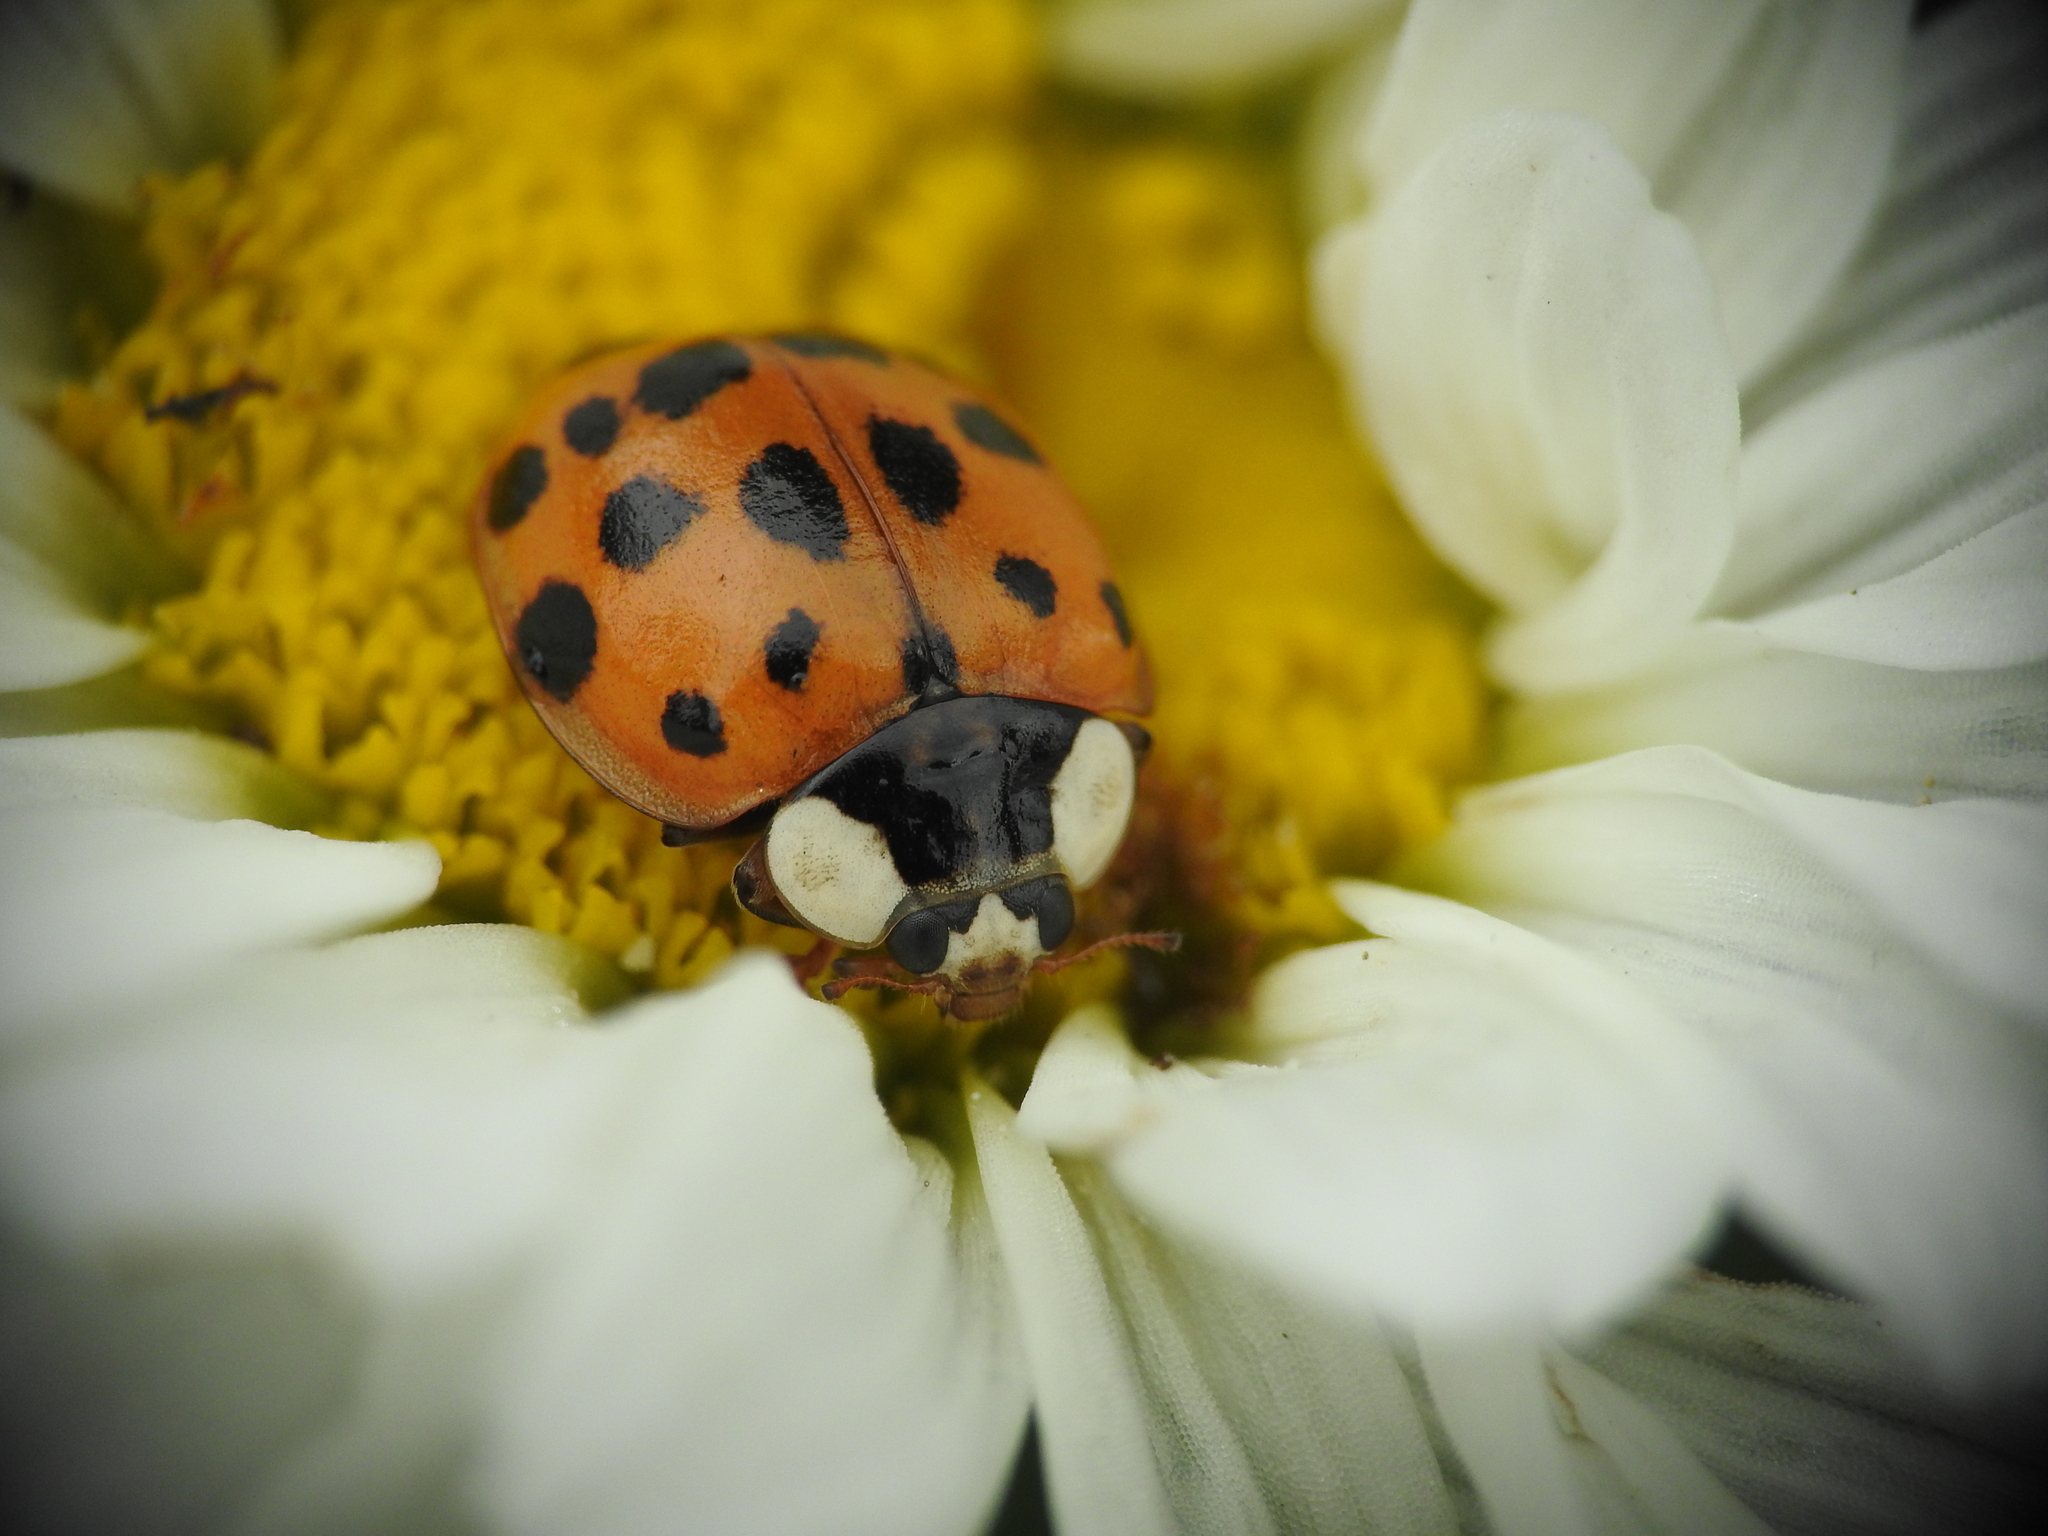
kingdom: Animalia
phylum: Arthropoda
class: Insecta
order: Coleoptera
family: Coccinellidae
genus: Harmonia
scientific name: Harmonia axyridis
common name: Harlequin ladybird
